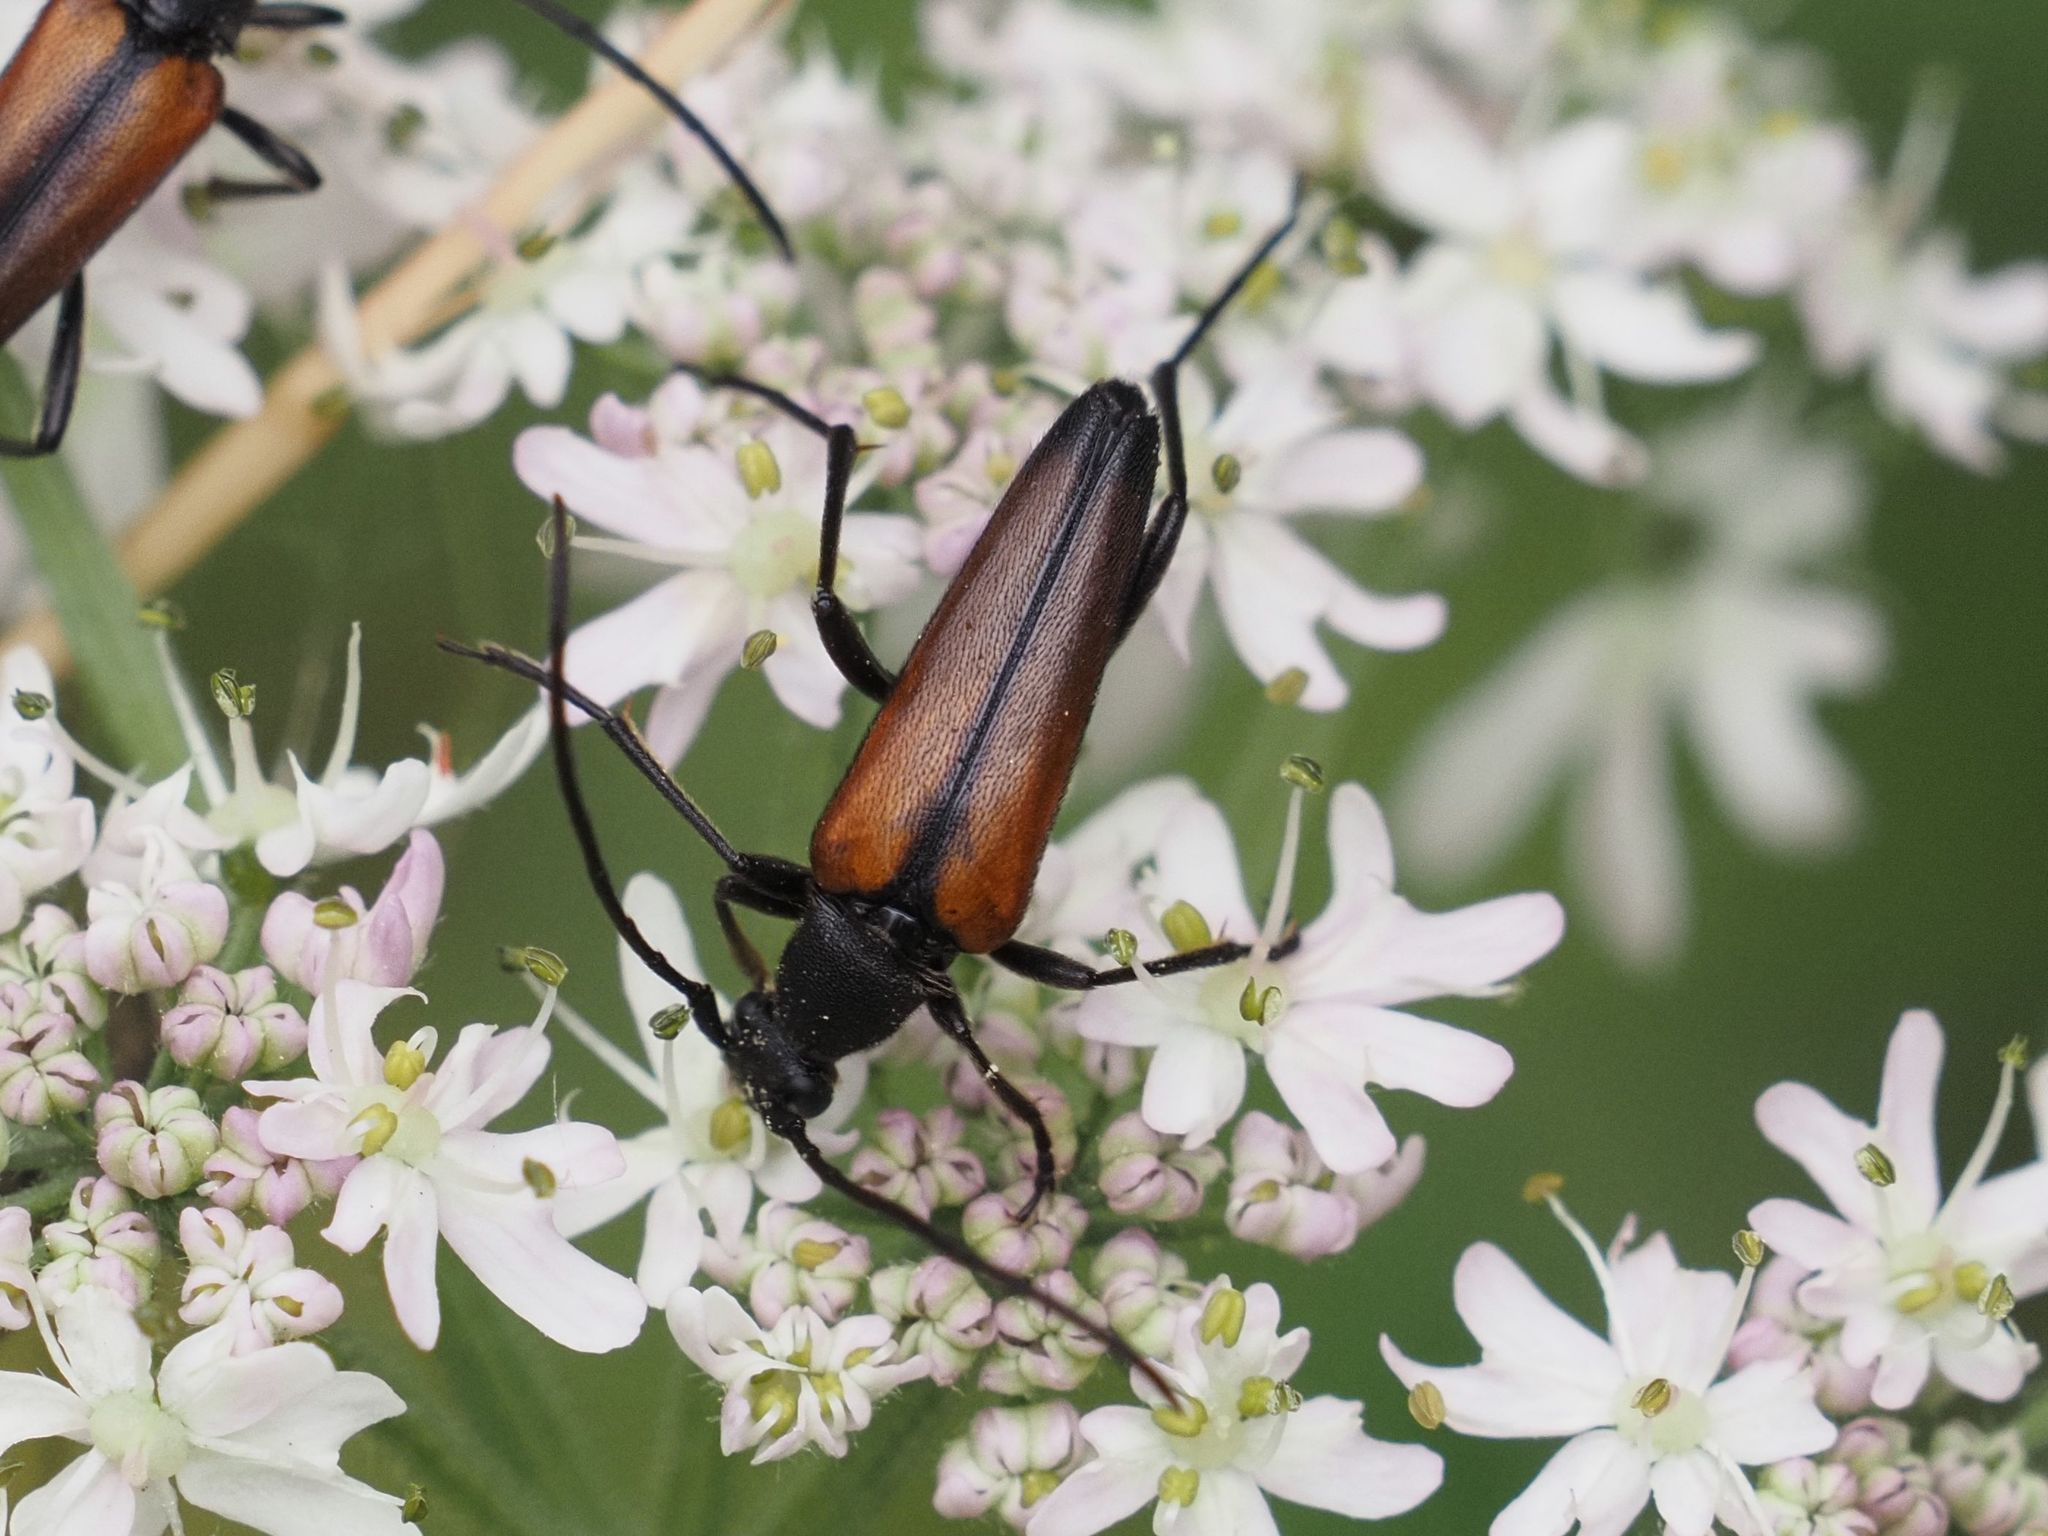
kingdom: Animalia
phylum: Arthropoda
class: Insecta
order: Coleoptera
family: Cerambycidae
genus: Stenurella
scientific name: Stenurella melanura
